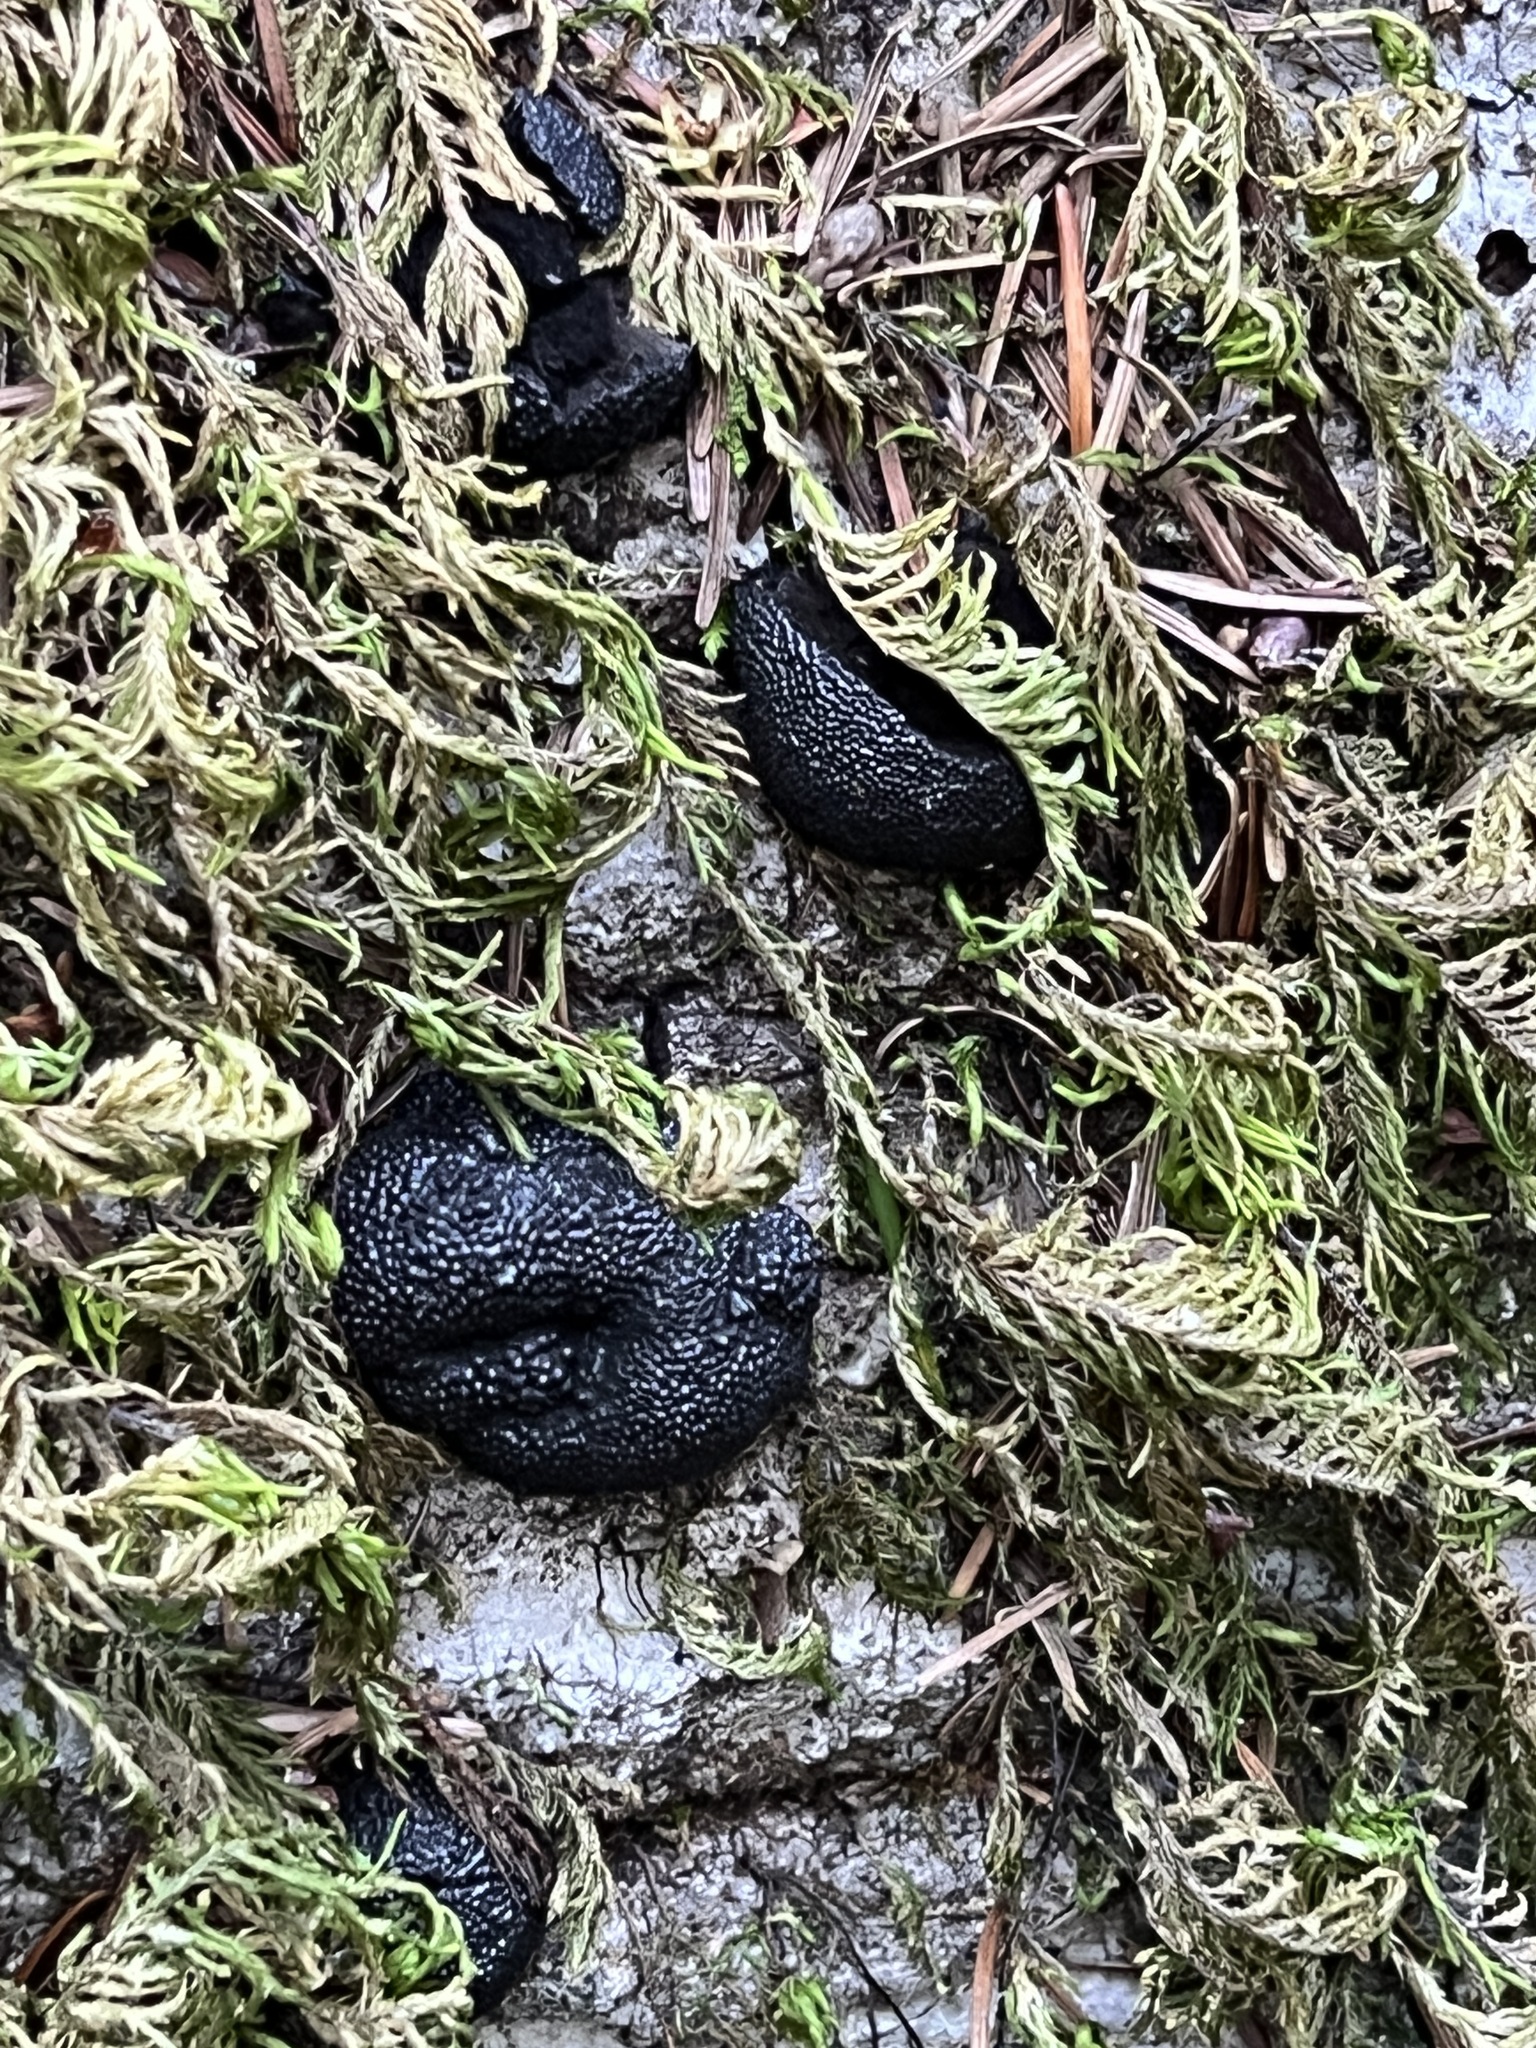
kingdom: Fungi
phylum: Ascomycota
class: Sordariomycetes
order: Xylariales
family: Hypoxylaceae
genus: Annulohypoxylon
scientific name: Annulohypoxylon thouarsianum
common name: Cramp balls
